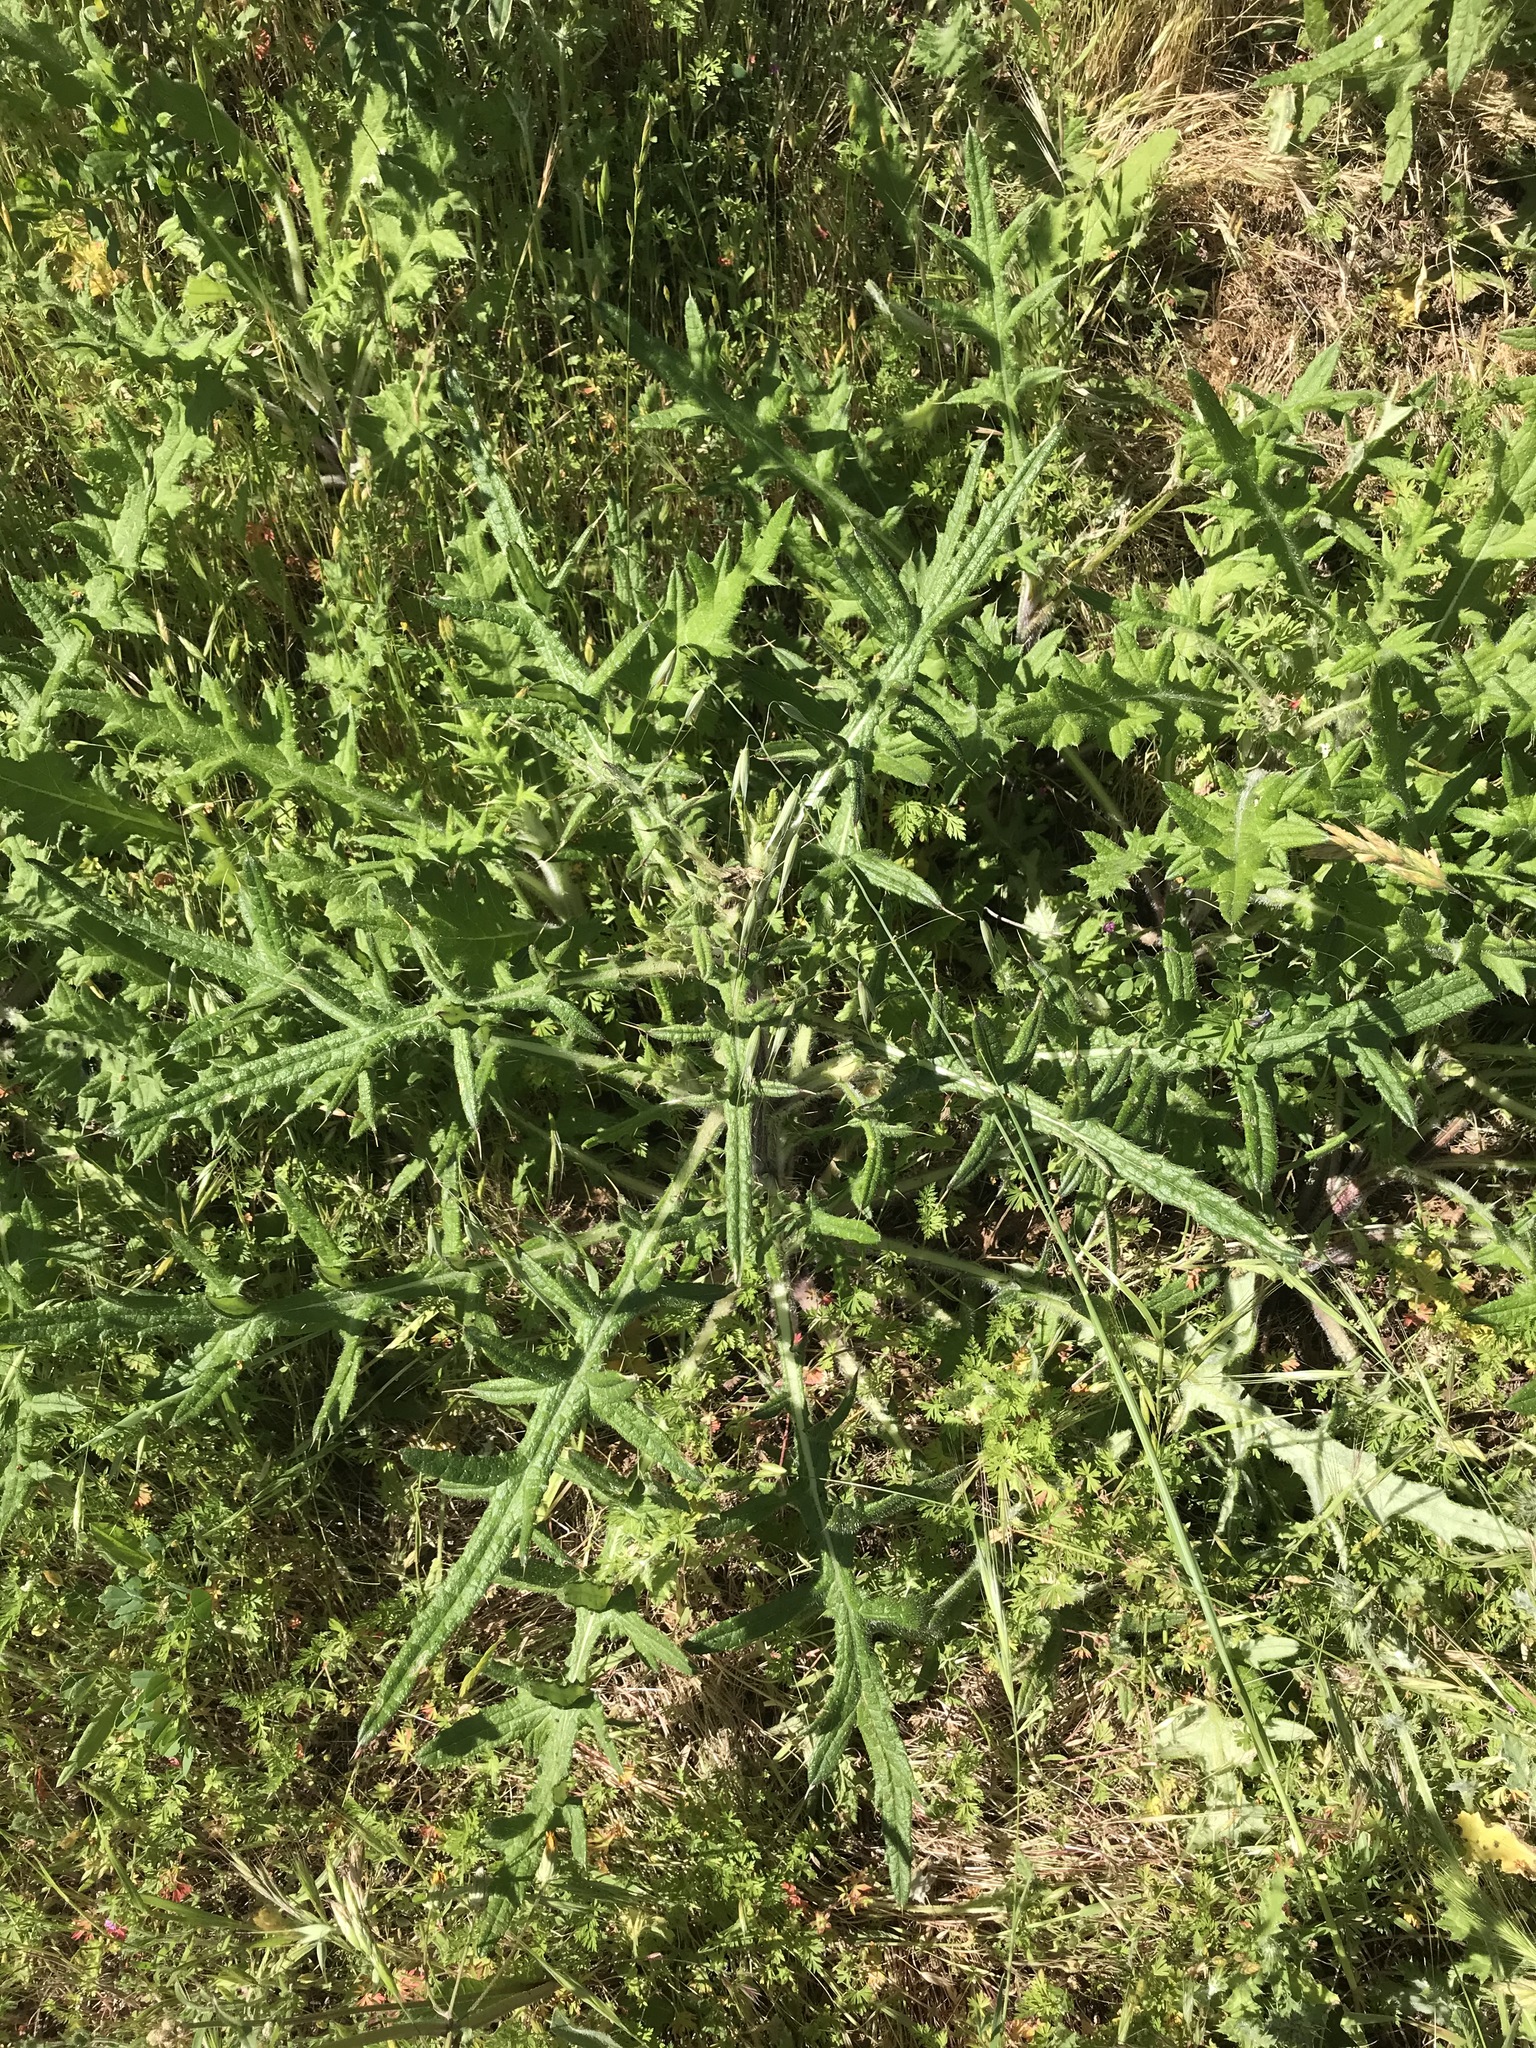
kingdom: Plantae
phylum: Tracheophyta
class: Magnoliopsida
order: Asterales
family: Asteraceae
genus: Cirsium
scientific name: Cirsium vulgare
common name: Bull thistle
